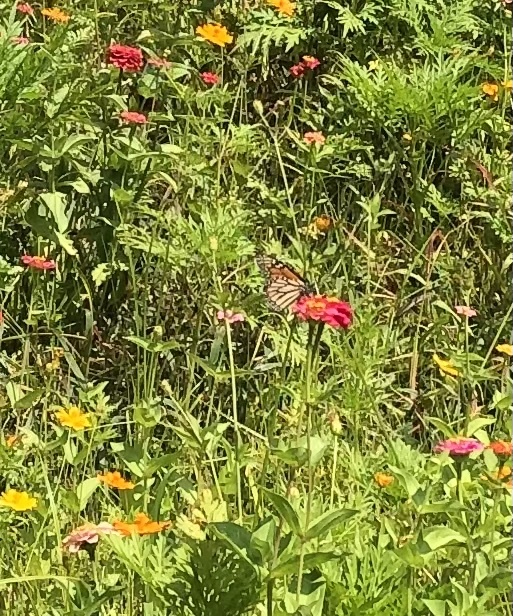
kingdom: Animalia
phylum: Arthropoda
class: Insecta
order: Lepidoptera
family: Nymphalidae
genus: Danaus
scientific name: Danaus plexippus
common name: Monarch
